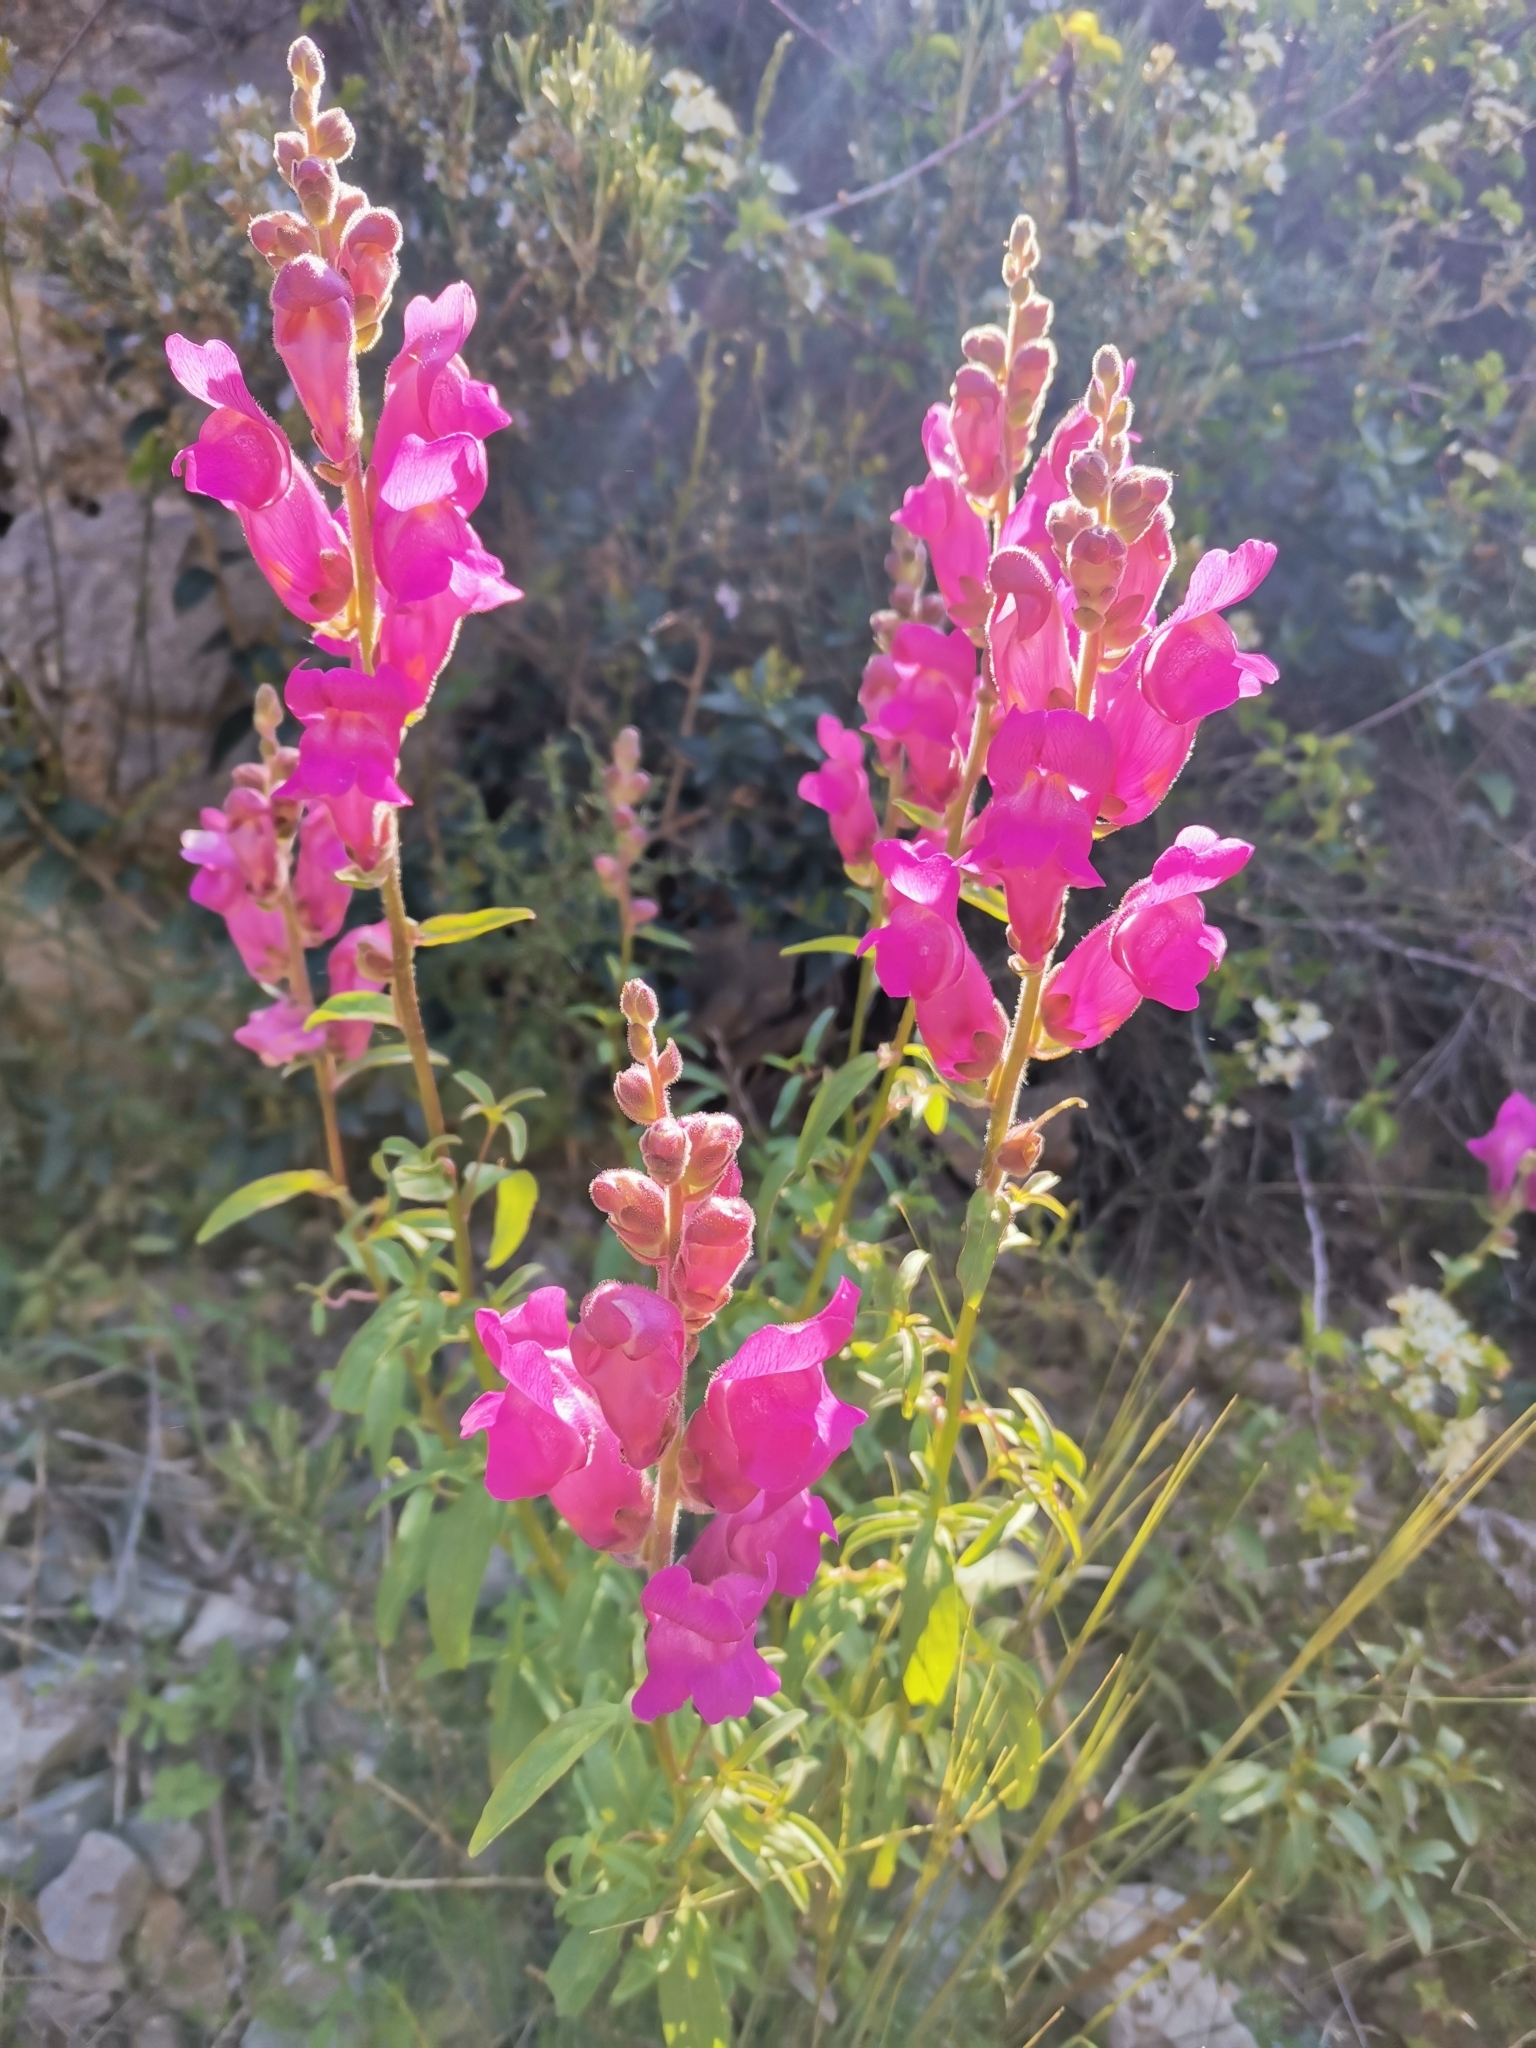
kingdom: Plantae
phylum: Tracheophyta
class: Magnoliopsida
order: Lamiales
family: Plantaginaceae
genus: Antirrhinum
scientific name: Antirrhinum majus
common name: Snapdragon
